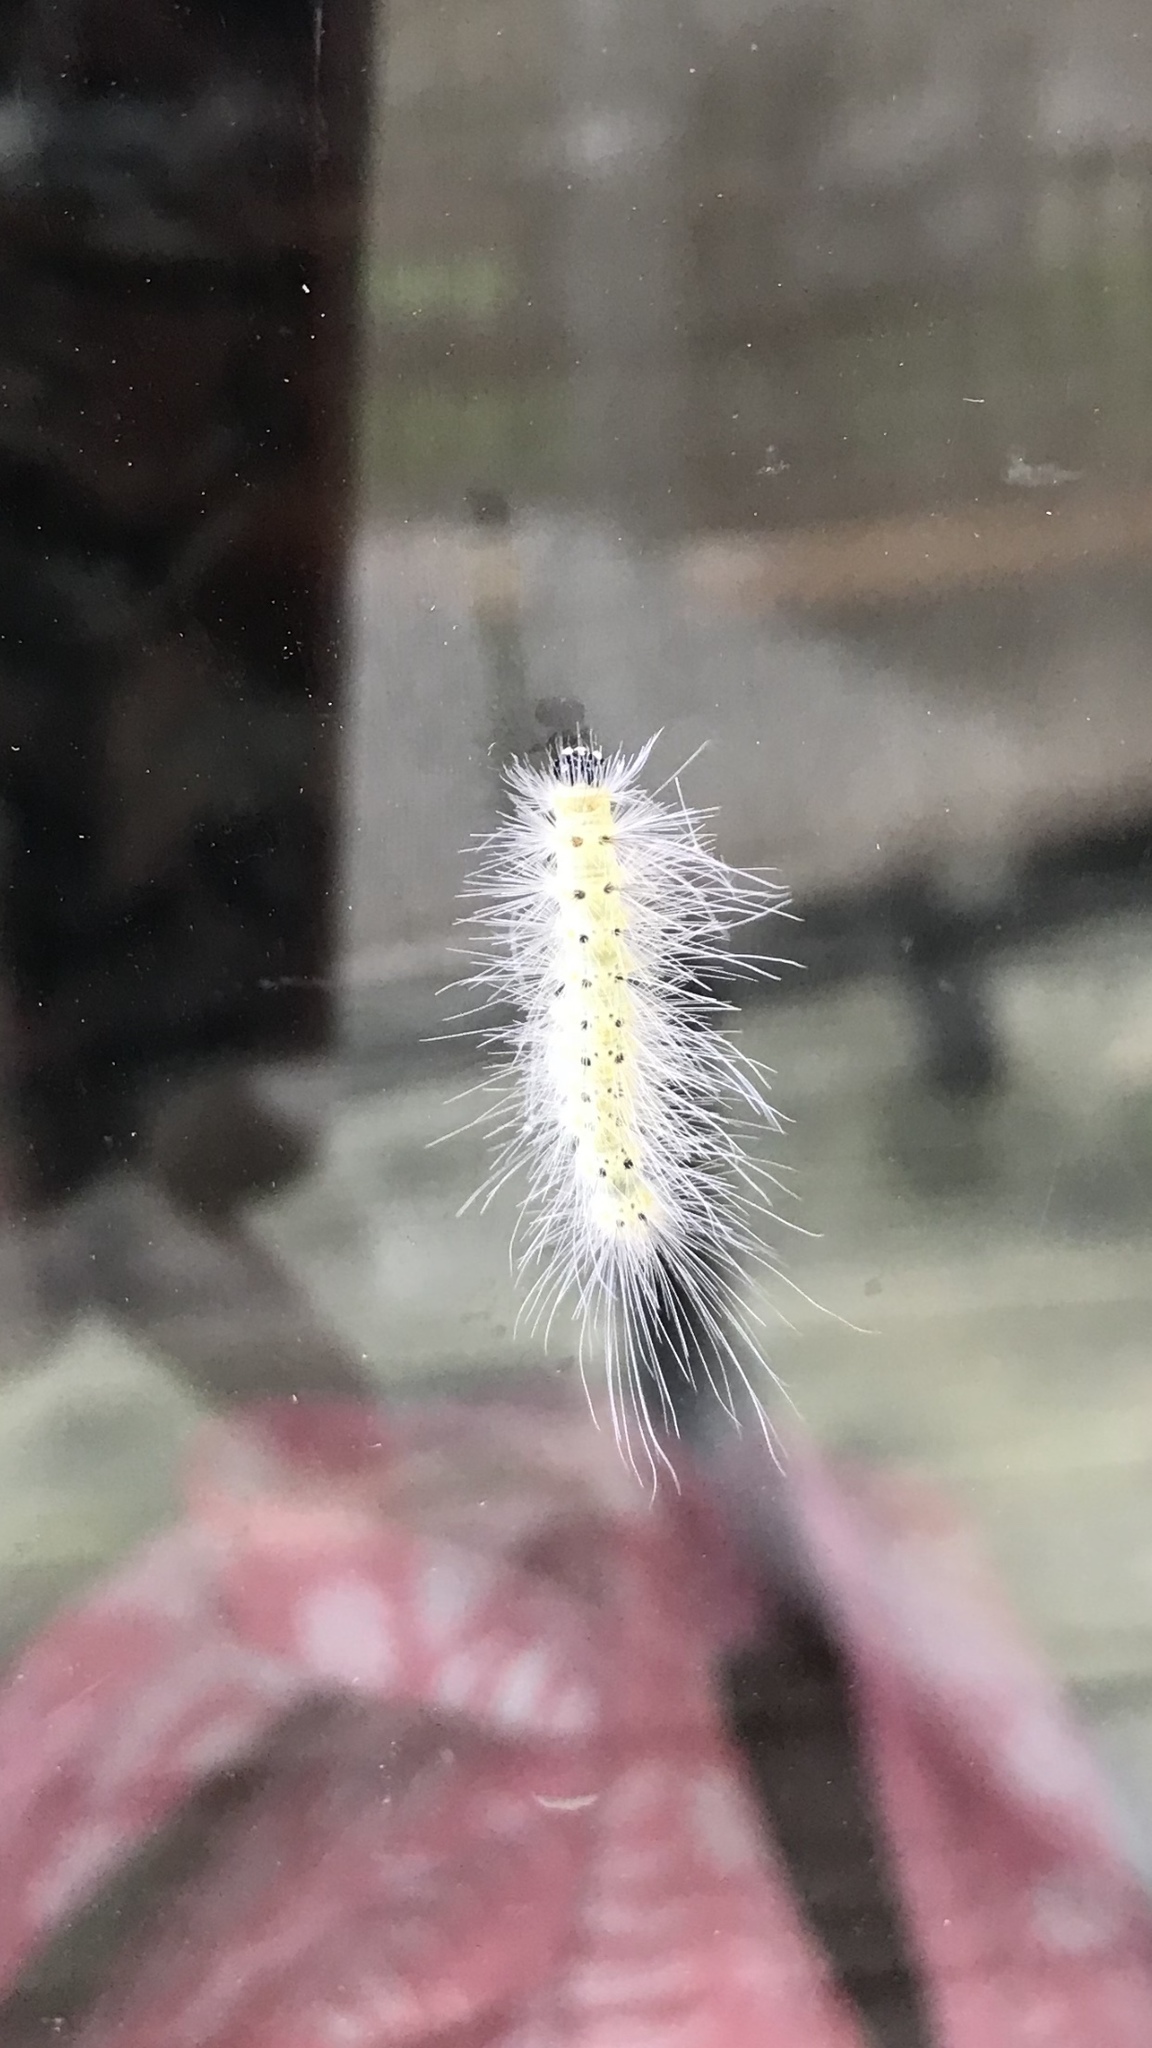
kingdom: Animalia
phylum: Arthropoda
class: Insecta
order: Lepidoptera
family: Erebidae
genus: Hyphantria
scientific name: Hyphantria cunea
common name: American white moth
